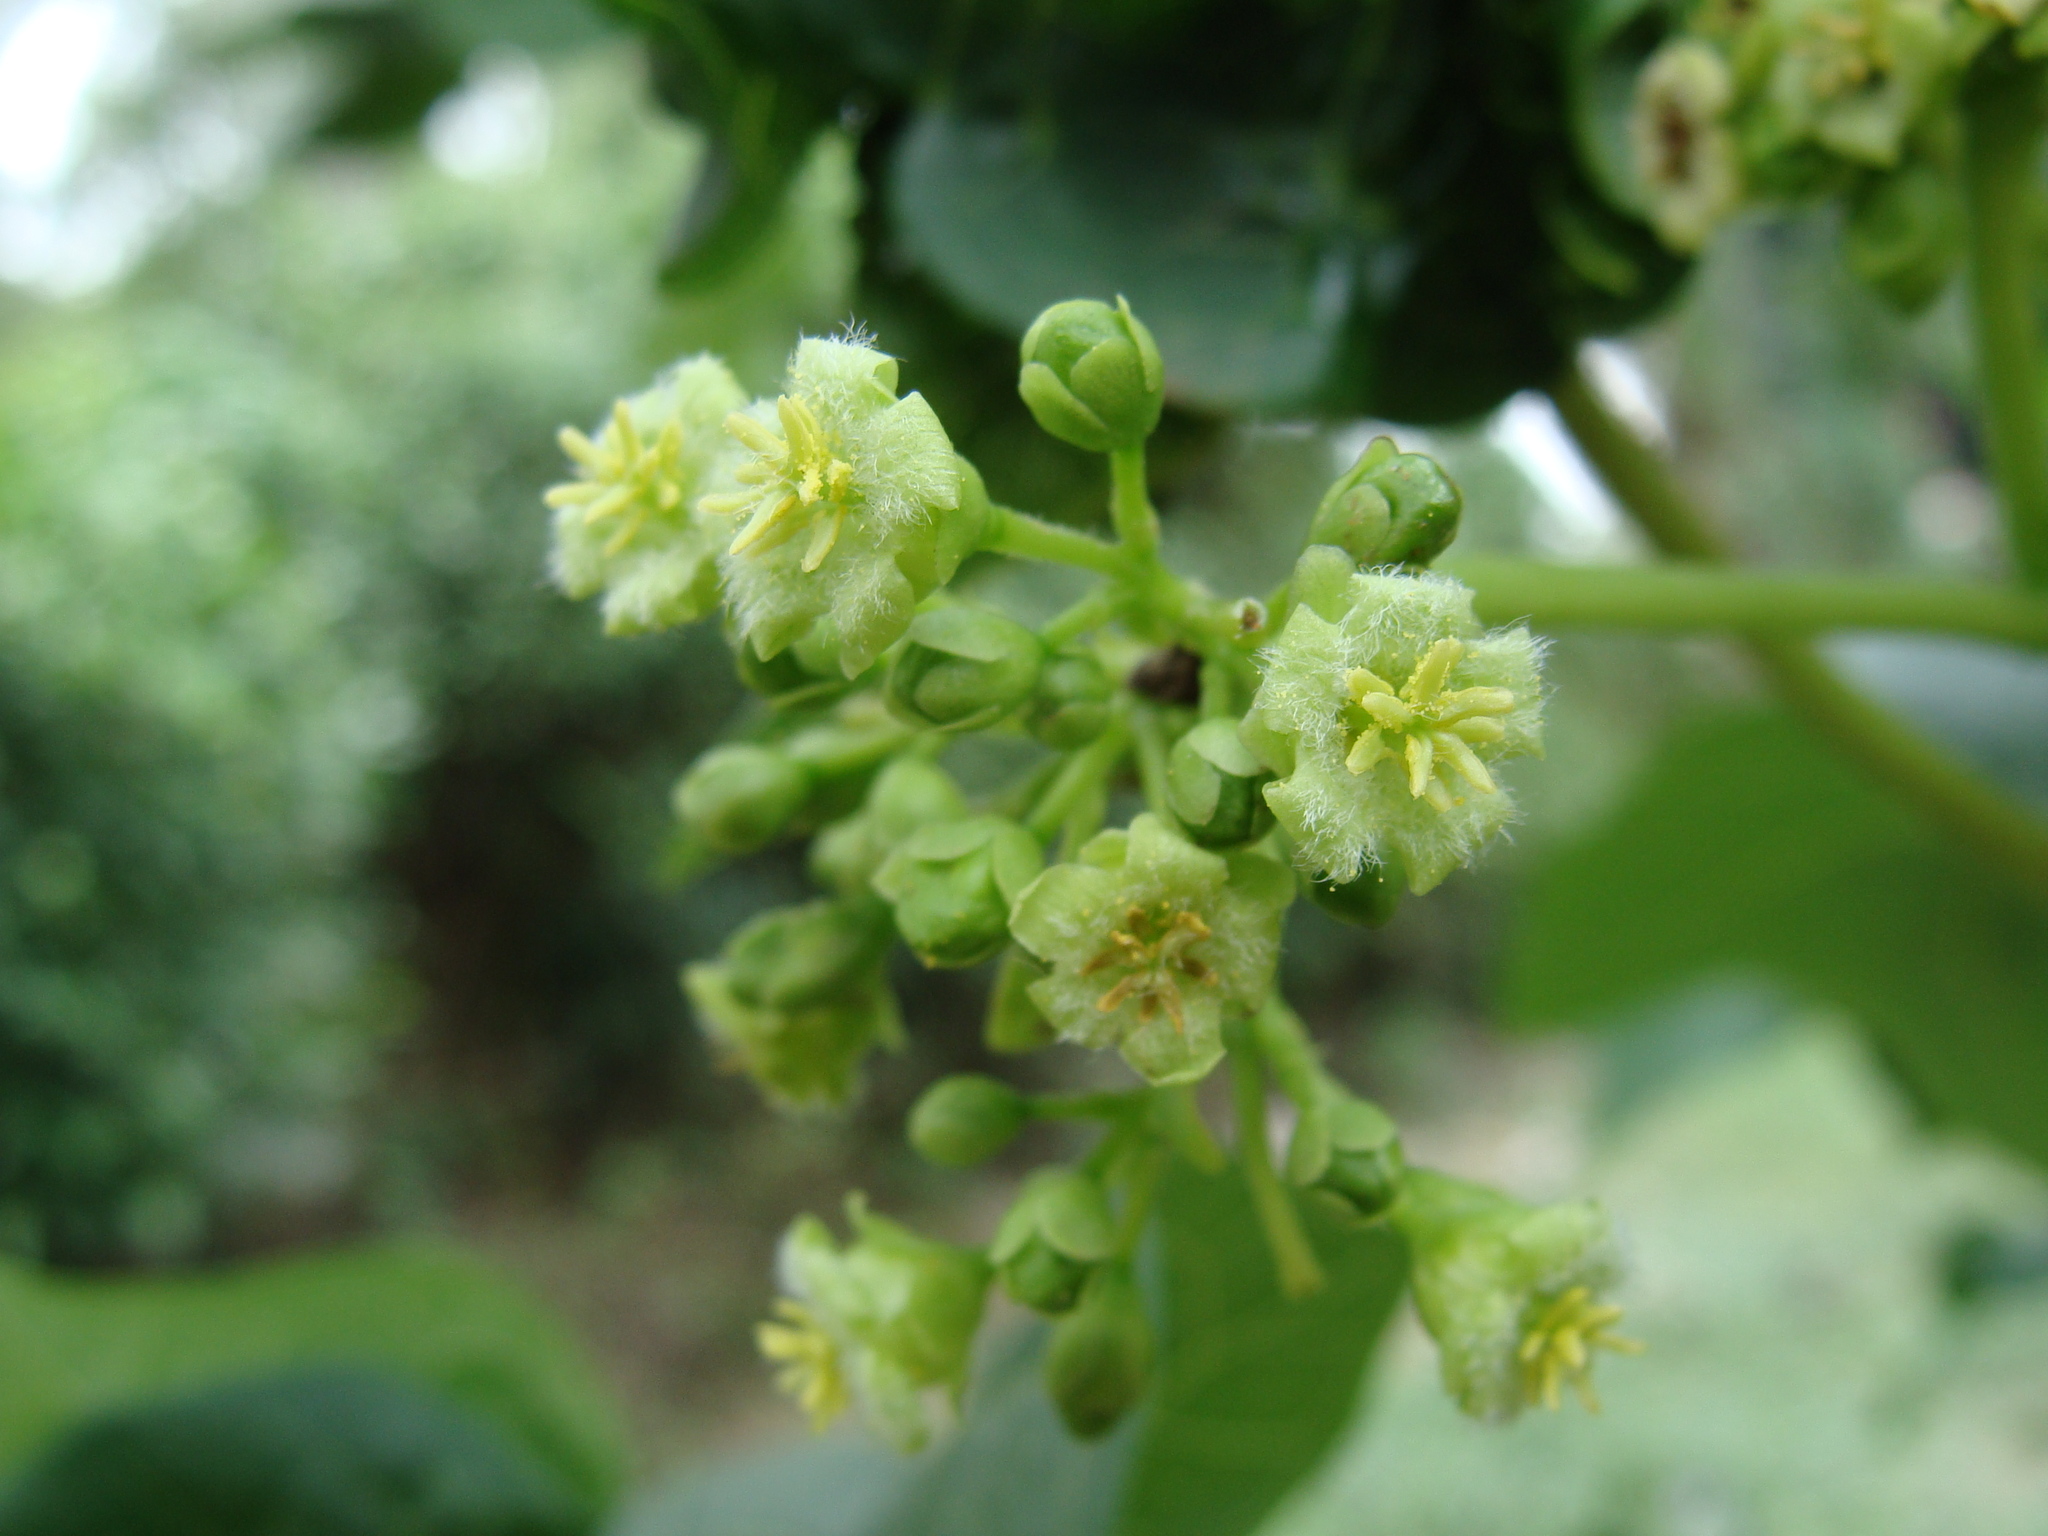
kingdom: Plantae
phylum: Tracheophyta
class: Magnoliopsida
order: Malpighiales
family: Euphorbiaceae
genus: Jatropha
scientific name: Jatropha curcas
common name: Barbados nut
